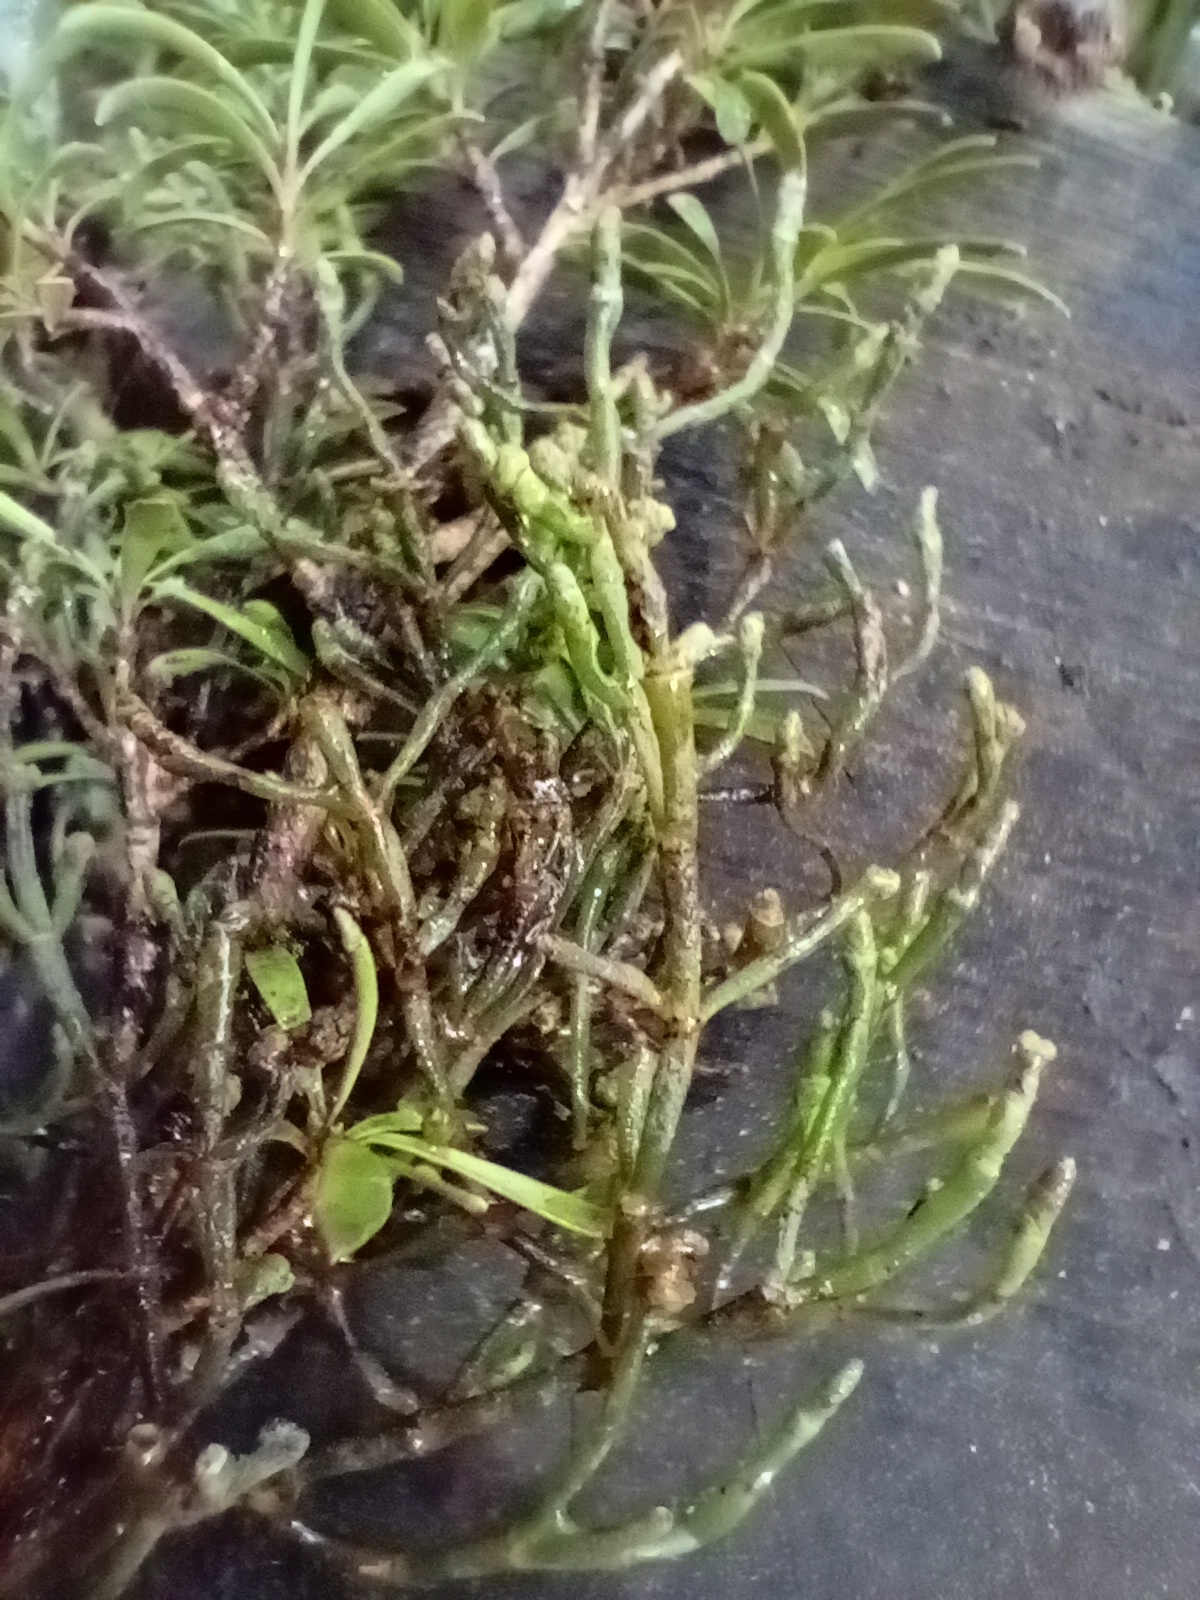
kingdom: Plantae
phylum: Tracheophyta
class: Magnoliopsida
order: Santalales
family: Viscaceae
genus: Korthalsella
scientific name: Korthalsella salicornioides
